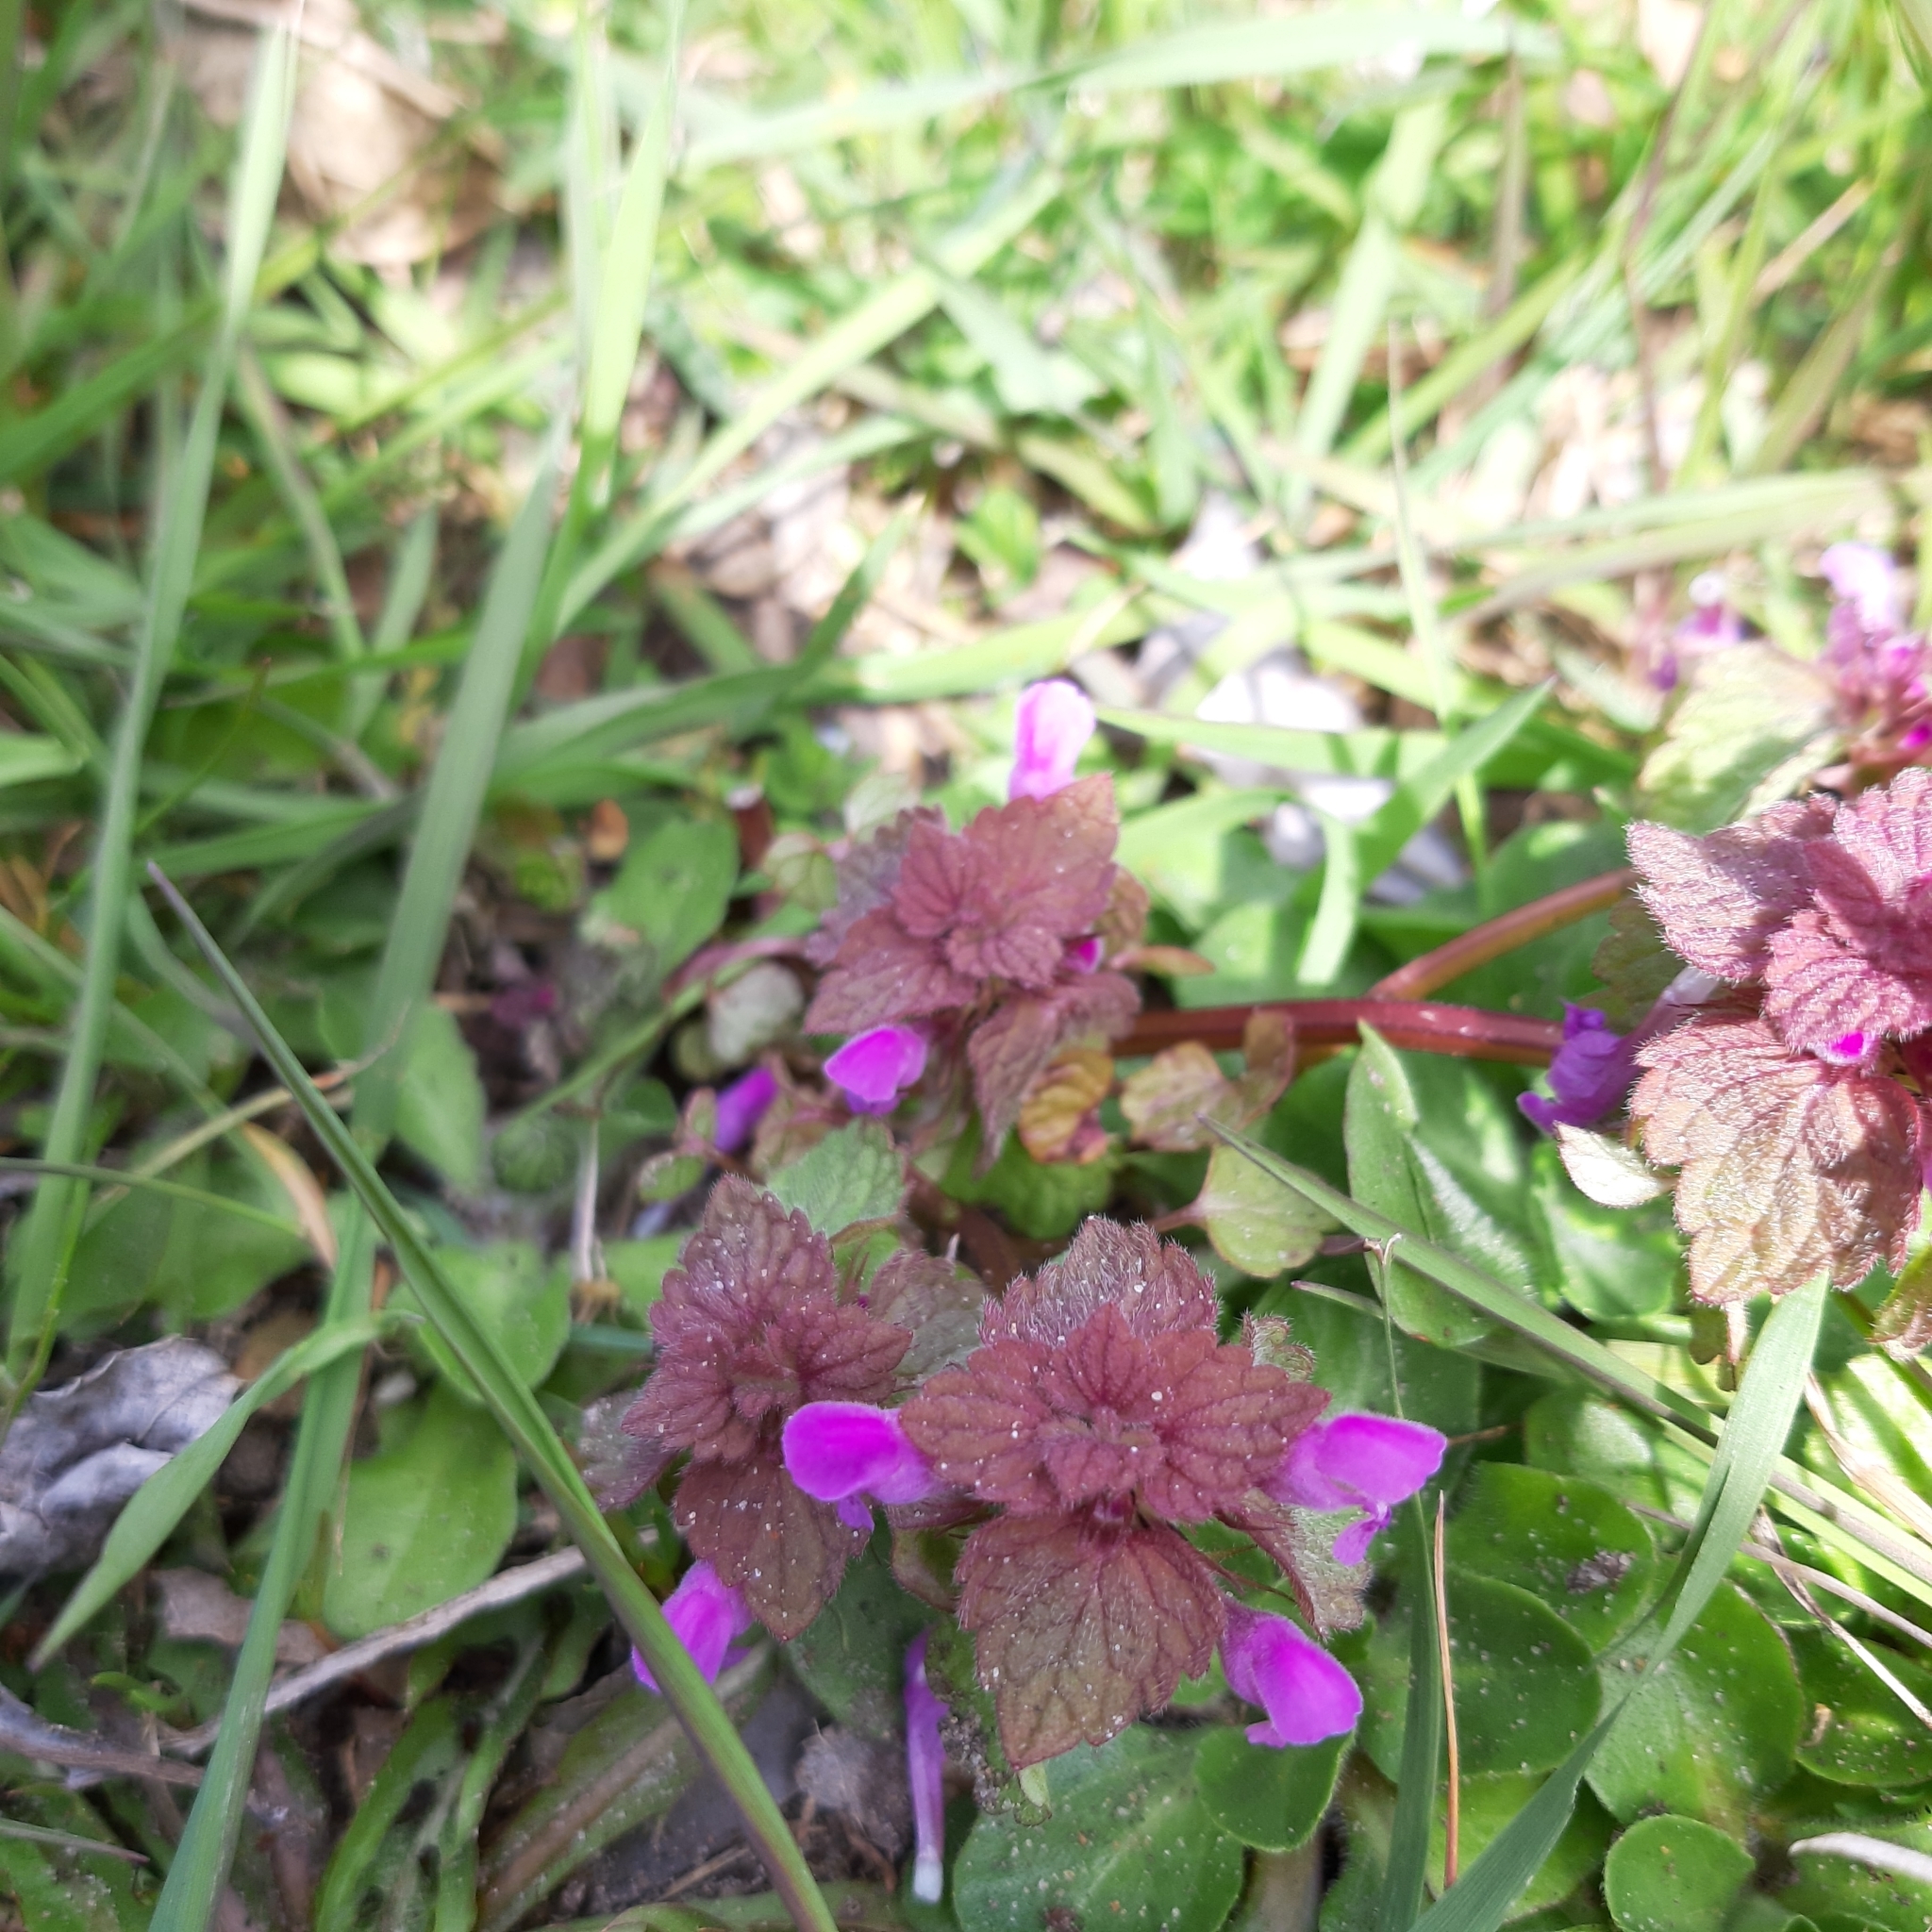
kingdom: Plantae
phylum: Tracheophyta
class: Magnoliopsida
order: Lamiales
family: Lamiaceae
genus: Lamium
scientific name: Lamium purpureum
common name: Red dead-nettle
